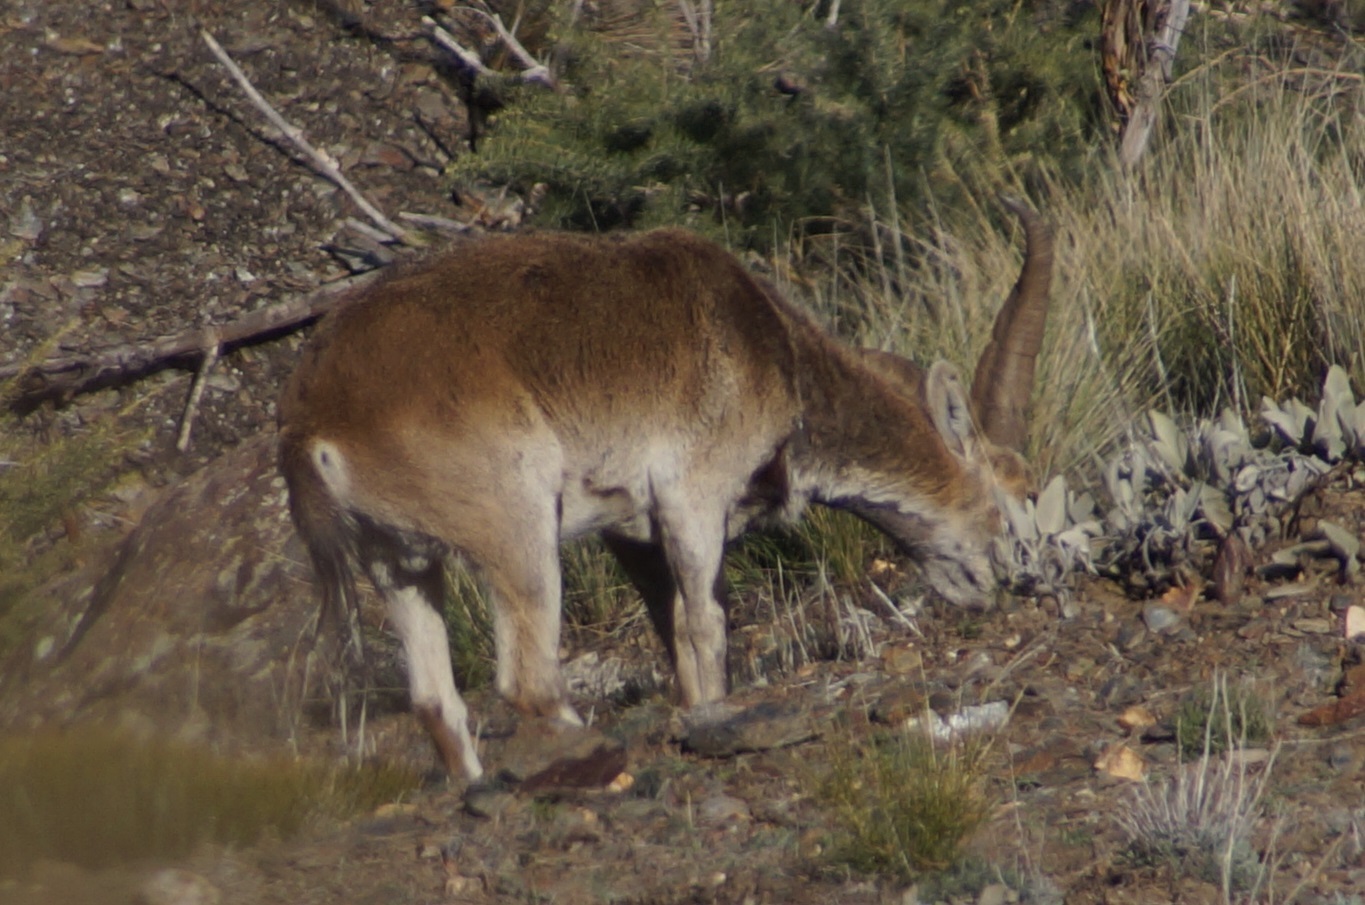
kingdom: Animalia
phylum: Chordata
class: Mammalia
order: Artiodactyla
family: Bovidae
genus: Capra
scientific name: Capra pyrenaica
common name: Spanish ibex
